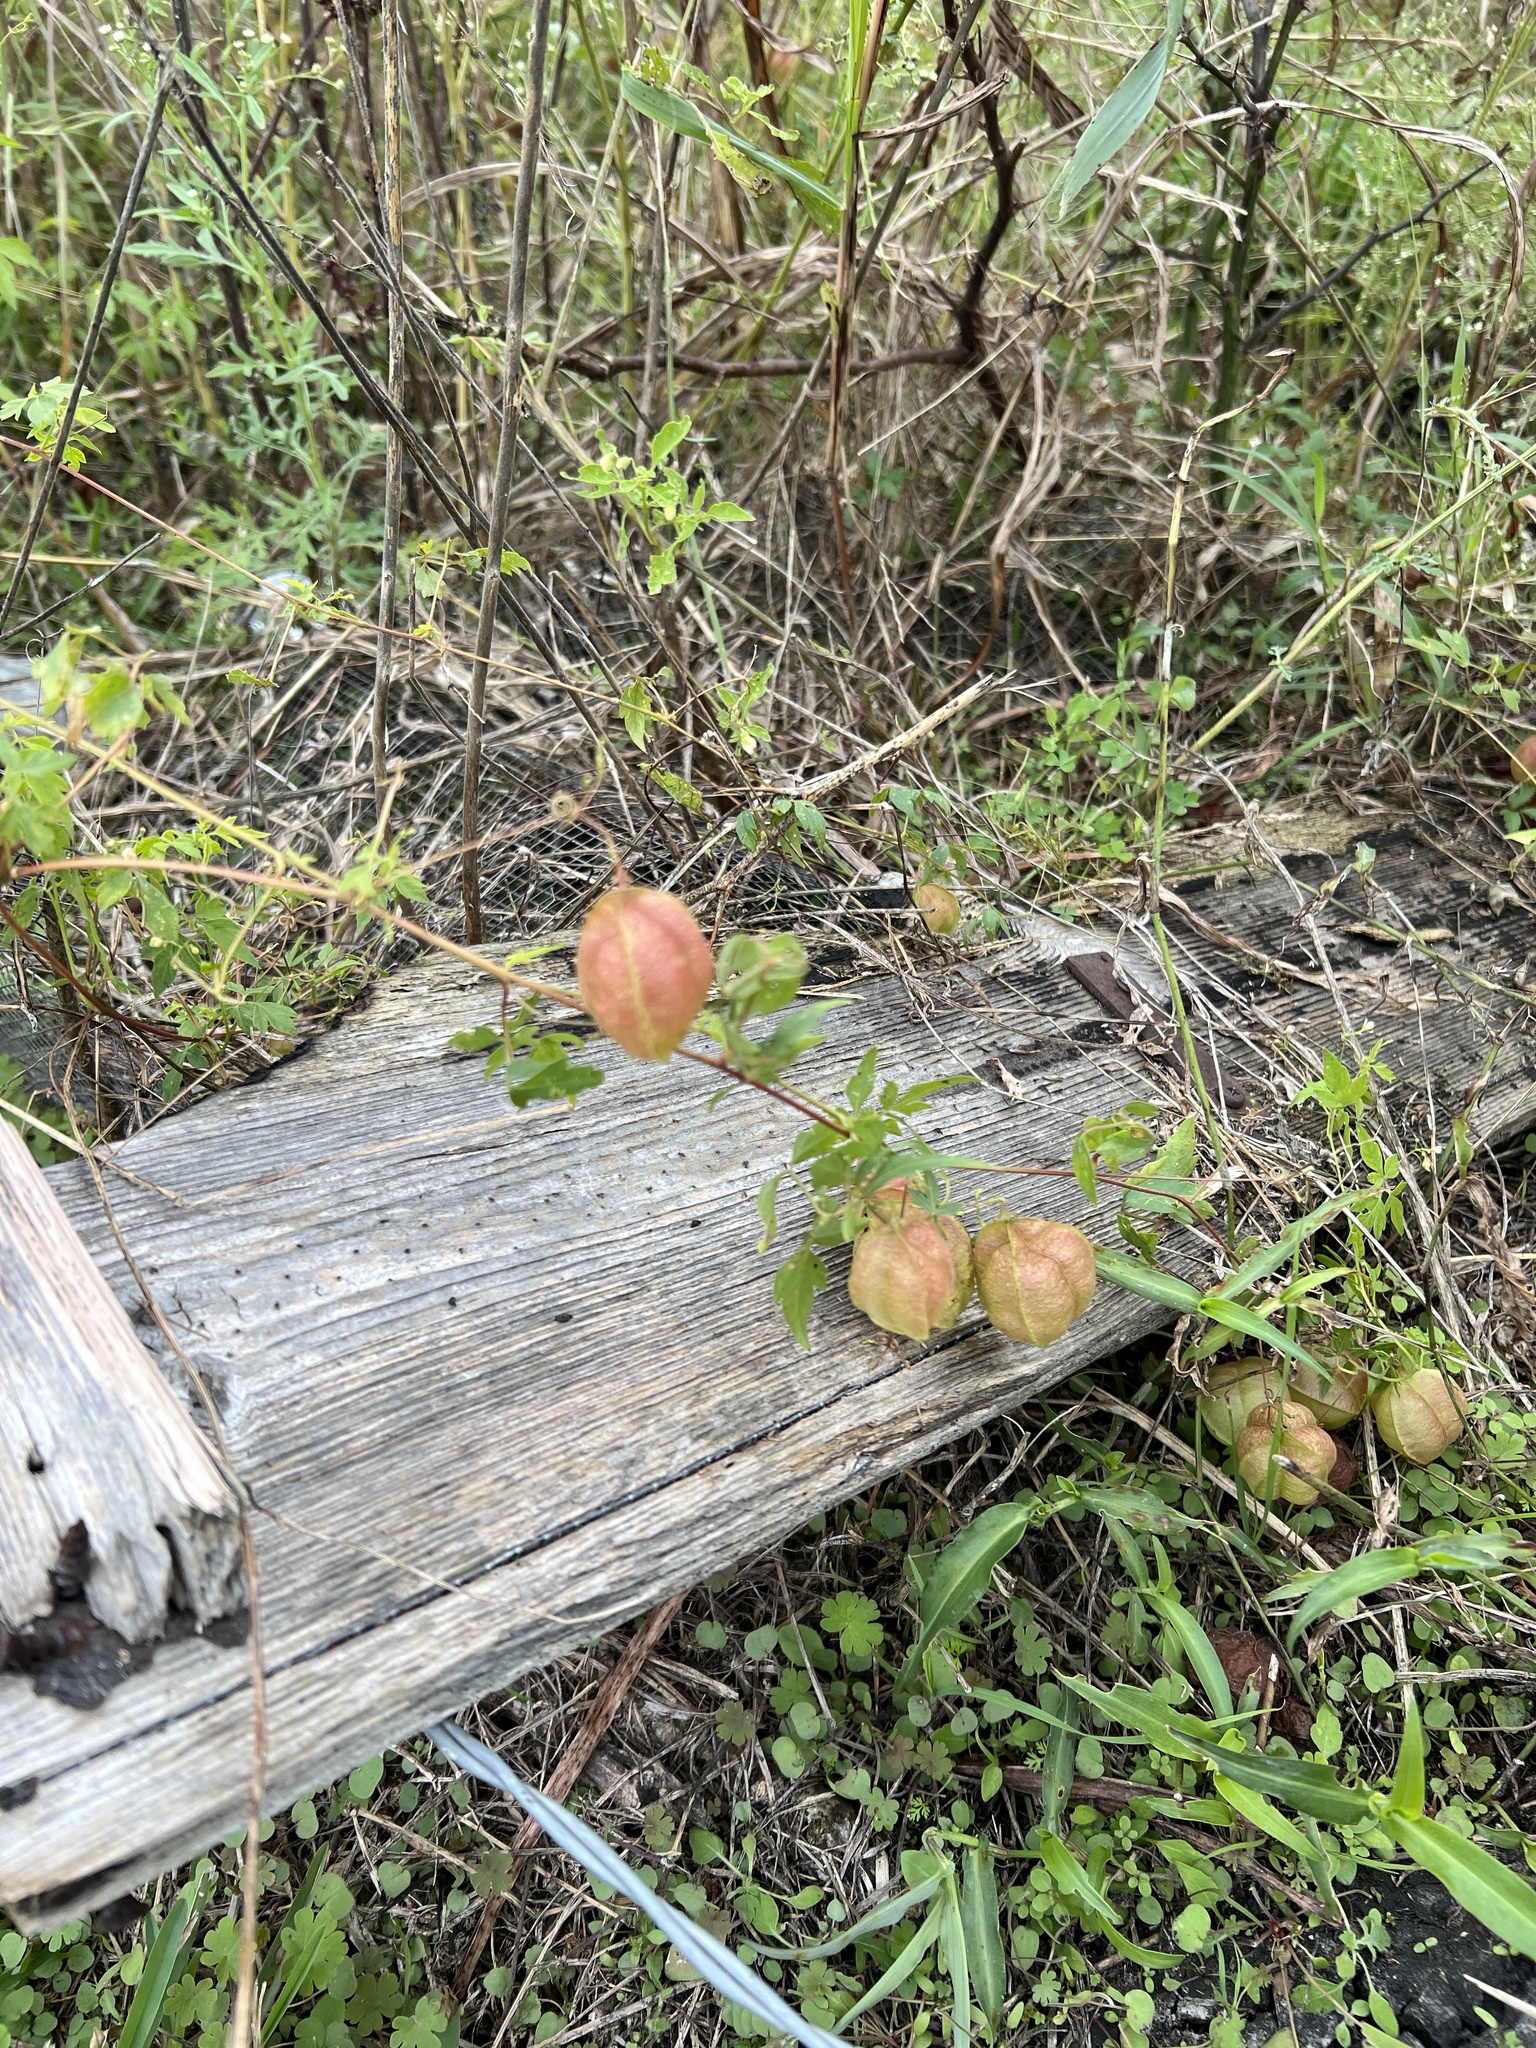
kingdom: Plantae
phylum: Tracheophyta
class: Magnoliopsida
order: Sapindales
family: Sapindaceae
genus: Cardiospermum
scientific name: Cardiospermum halicacabum
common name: Balloon vine
